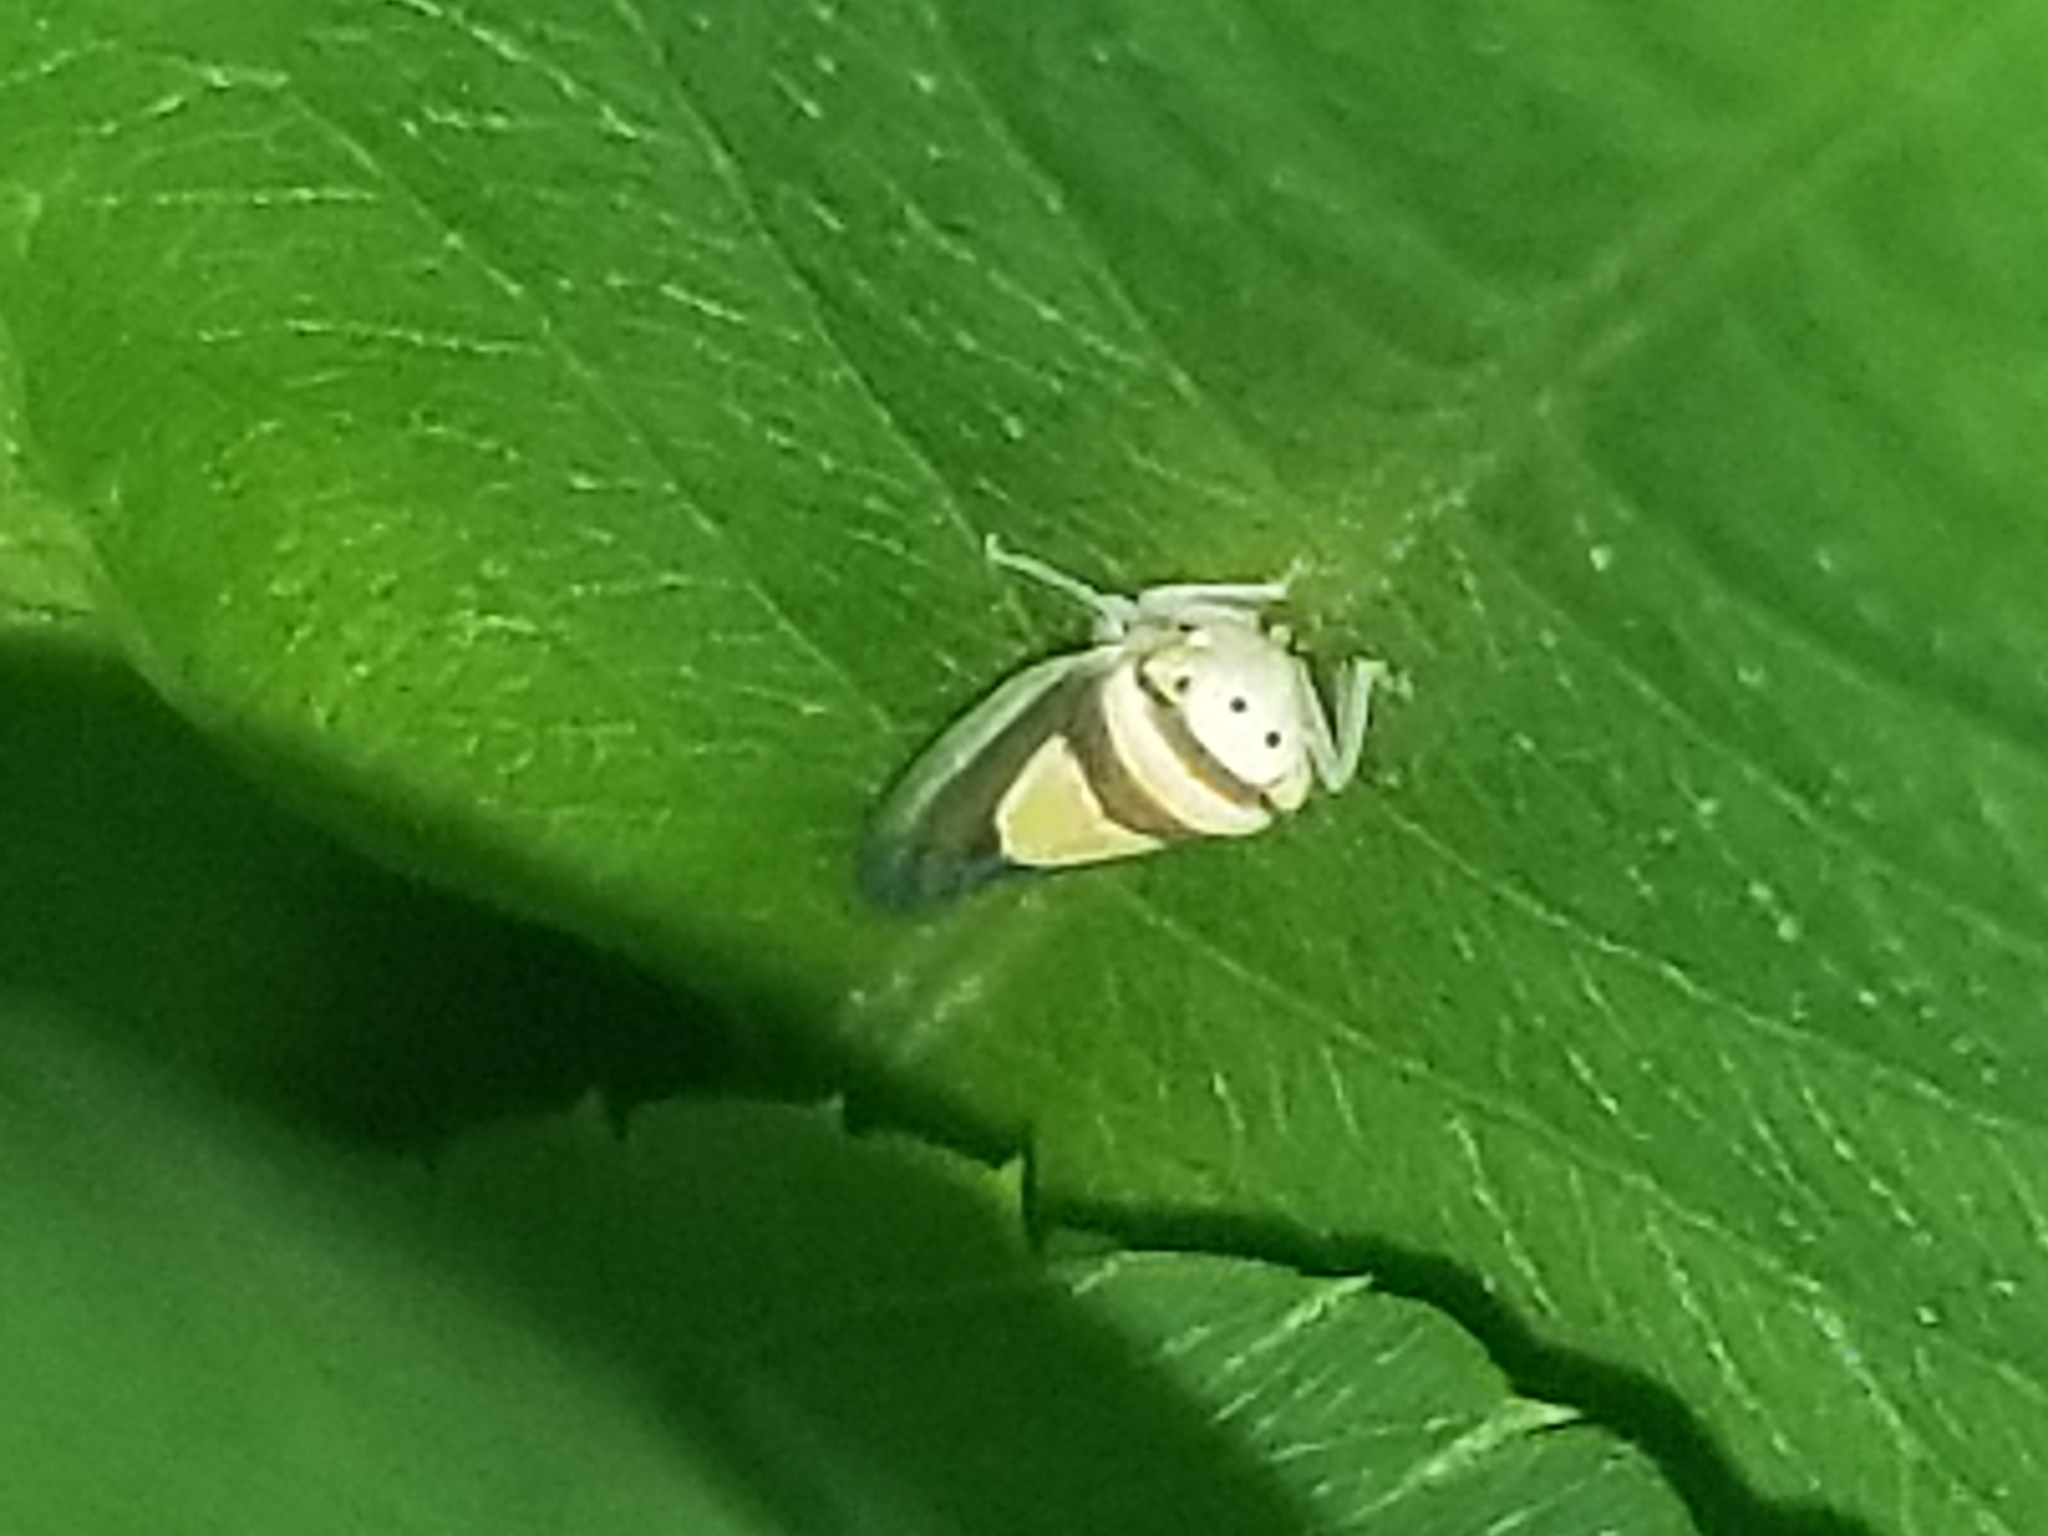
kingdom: Animalia
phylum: Arthropoda
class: Insecta
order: Hemiptera
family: Cicadellidae
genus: Colladonus
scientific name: Colladonus clitellarius
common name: The saddleback leafhopper
